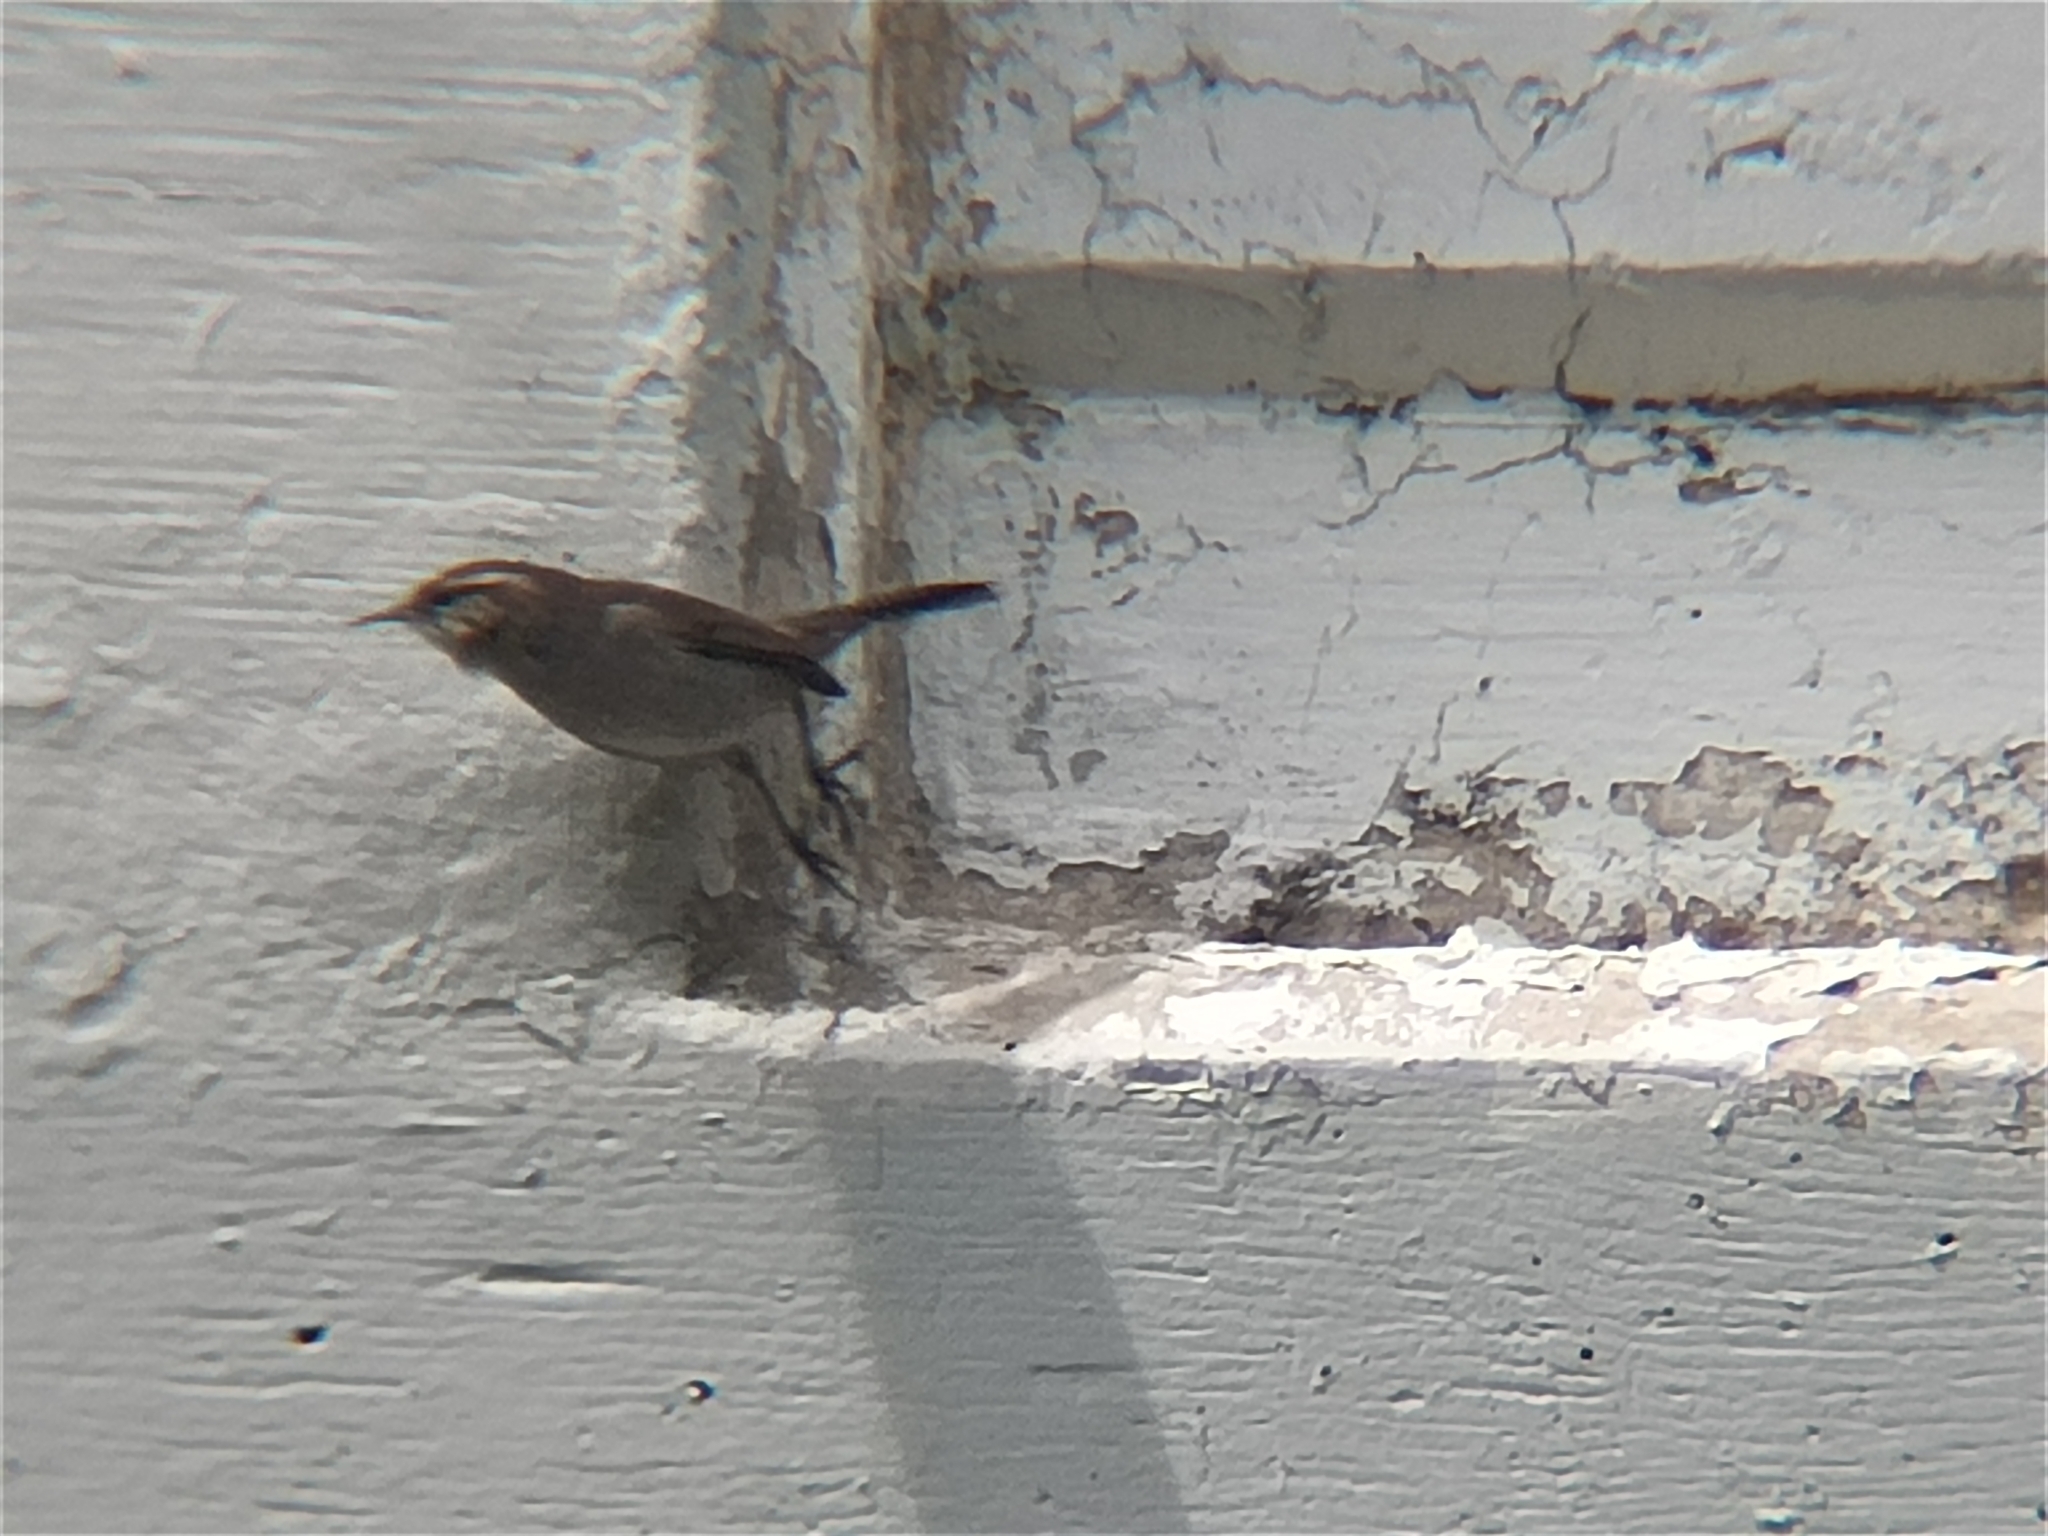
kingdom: Animalia
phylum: Chordata
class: Aves
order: Passeriformes
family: Troglodytidae
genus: Thryomanes
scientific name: Thryomanes bewickii
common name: Bewick's wren
